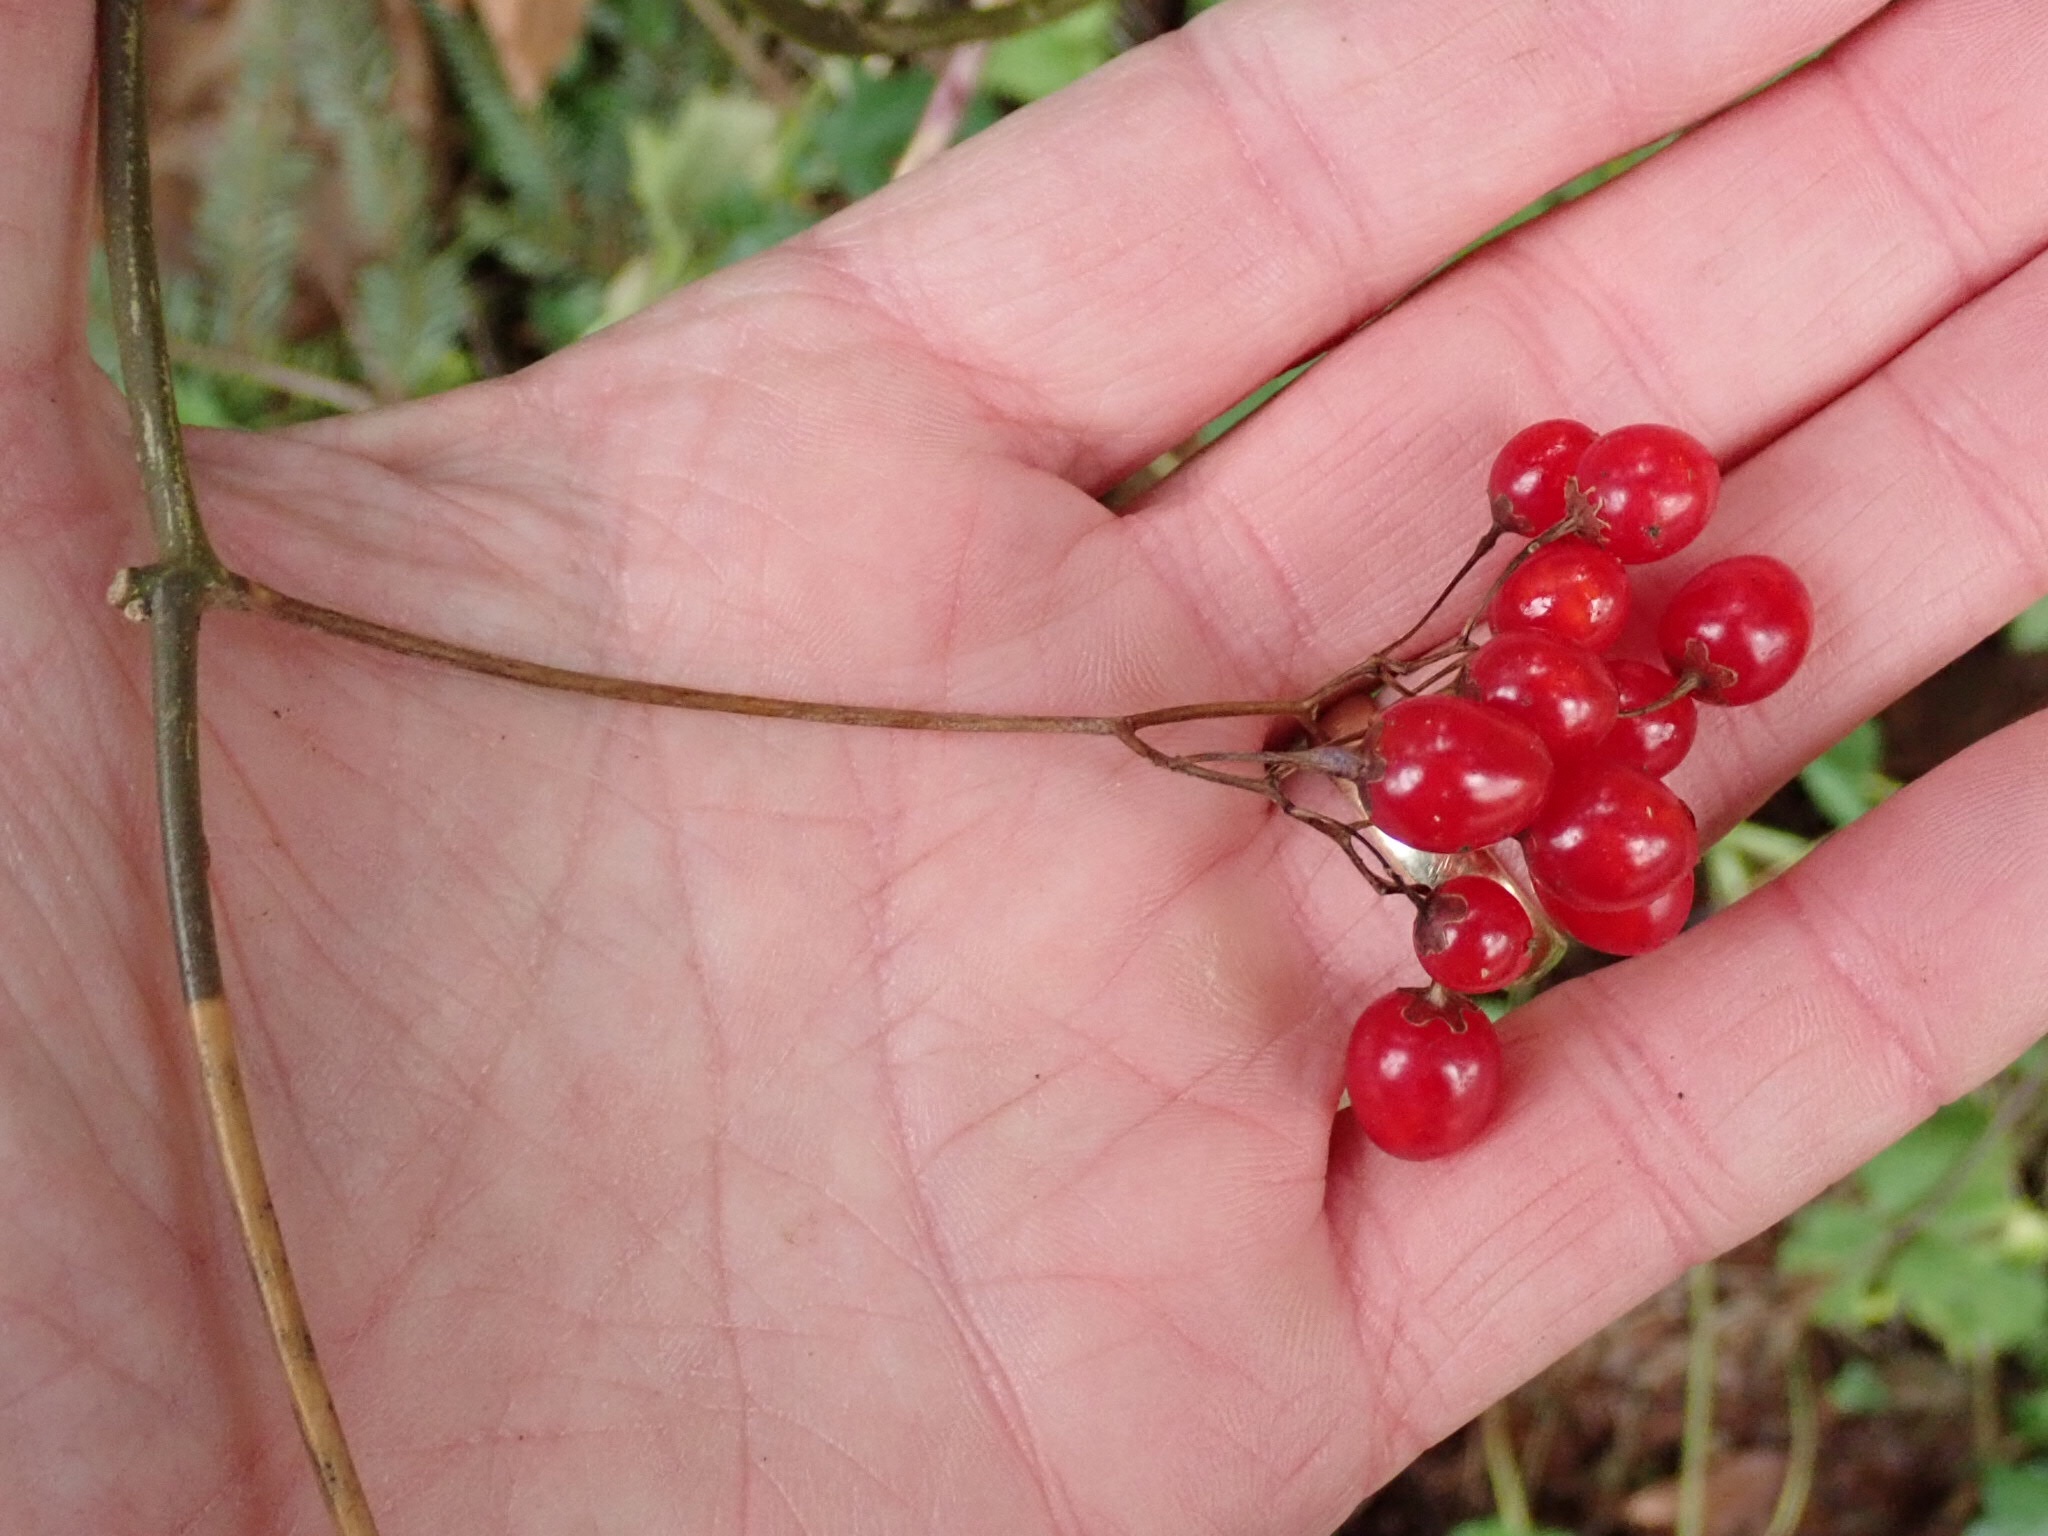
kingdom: Plantae
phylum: Tracheophyta
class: Magnoliopsida
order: Solanales
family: Solanaceae
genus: Solanum
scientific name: Solanum dulcamara
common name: Climbing nightshade
